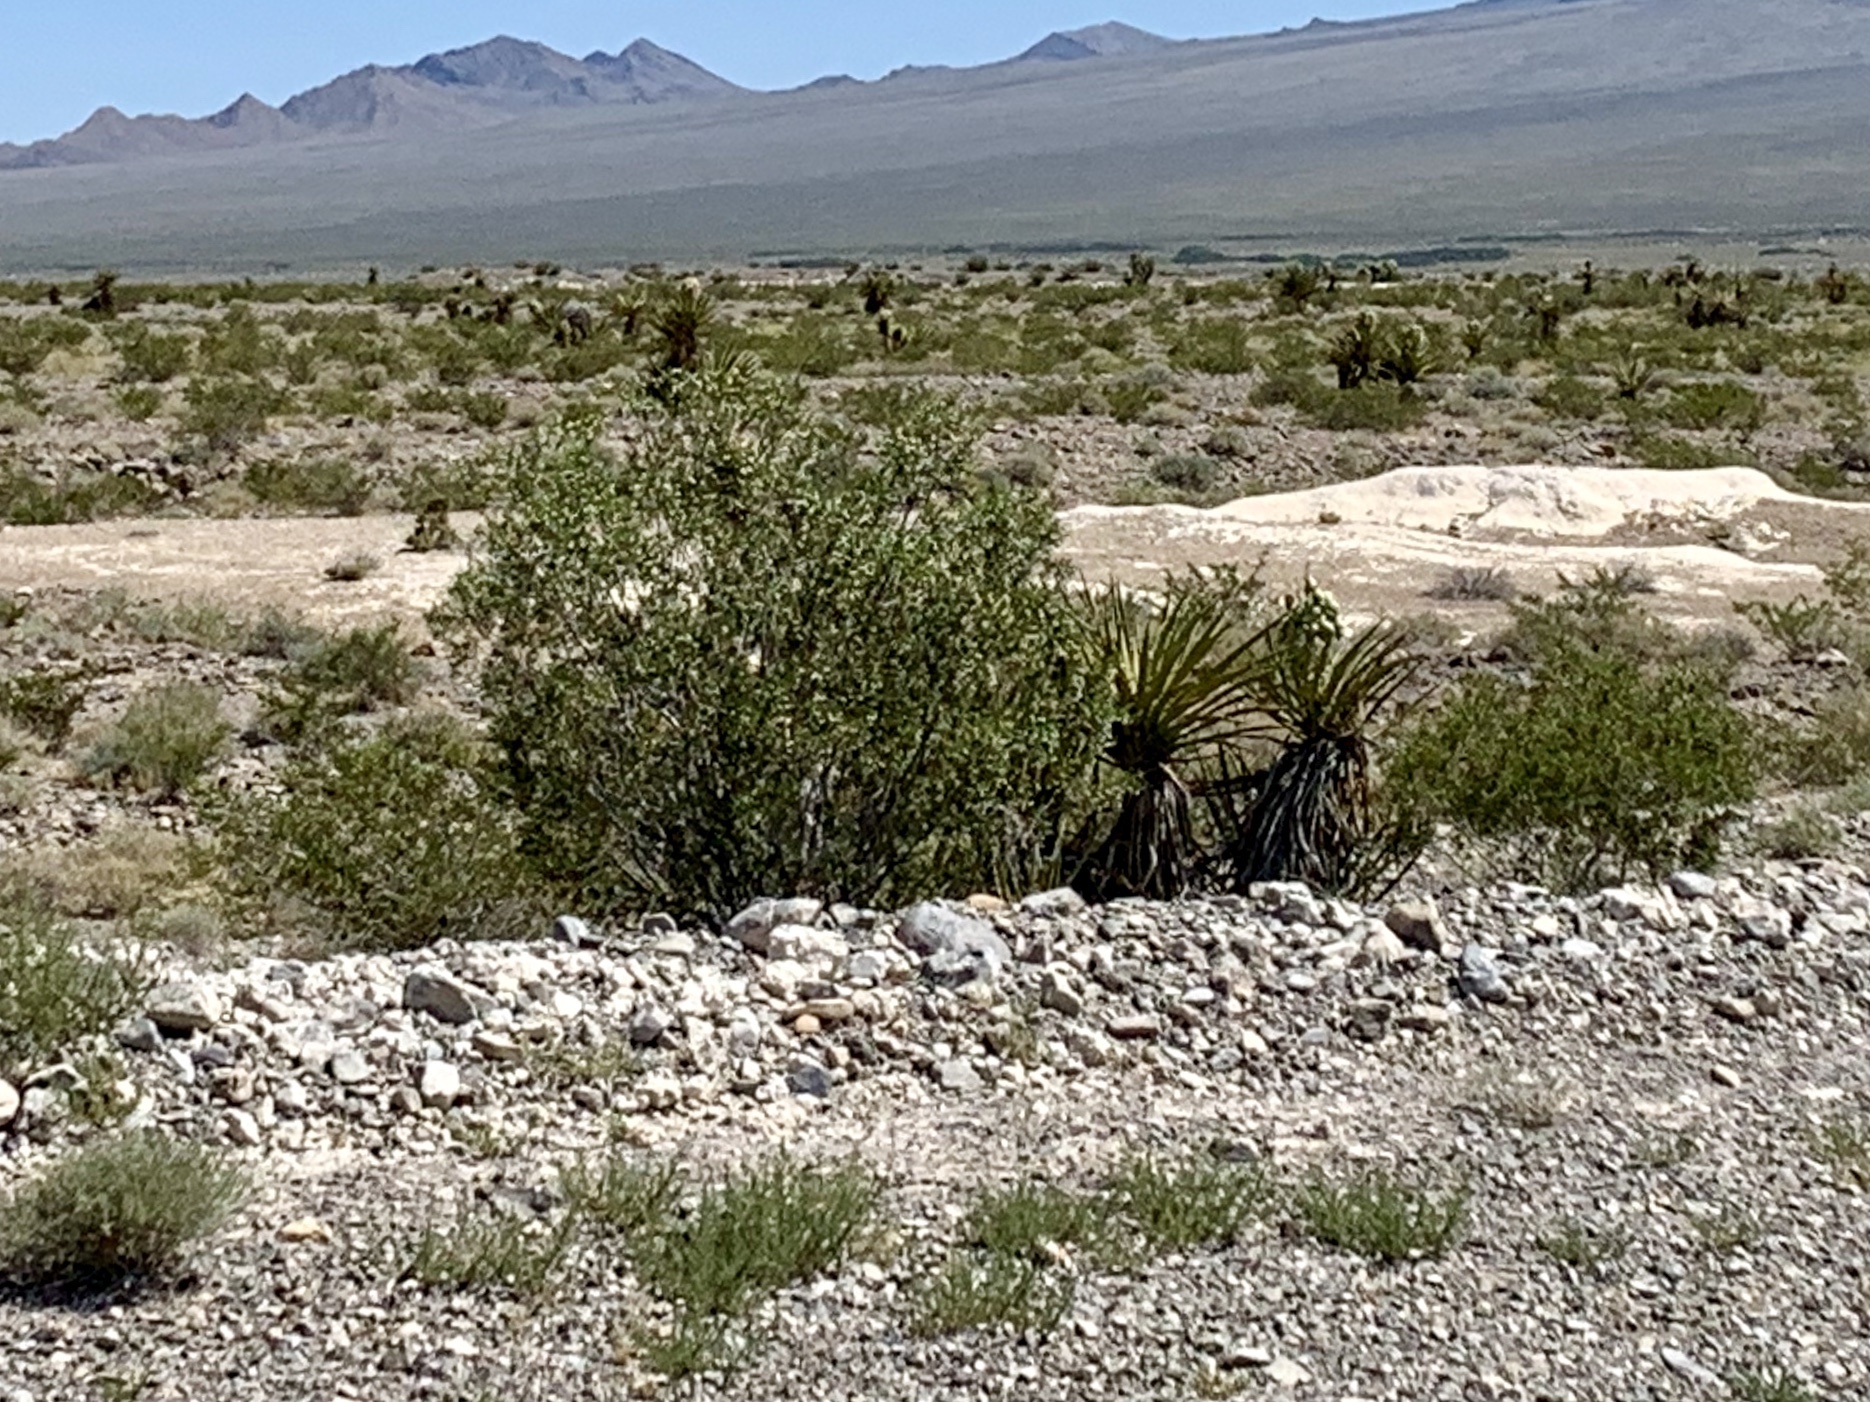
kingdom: Plantae
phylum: Tracheophyta
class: Magnoliopsida
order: Zygophyllales
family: Zygophyllaceae
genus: Larrea
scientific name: Larrea tridentata
